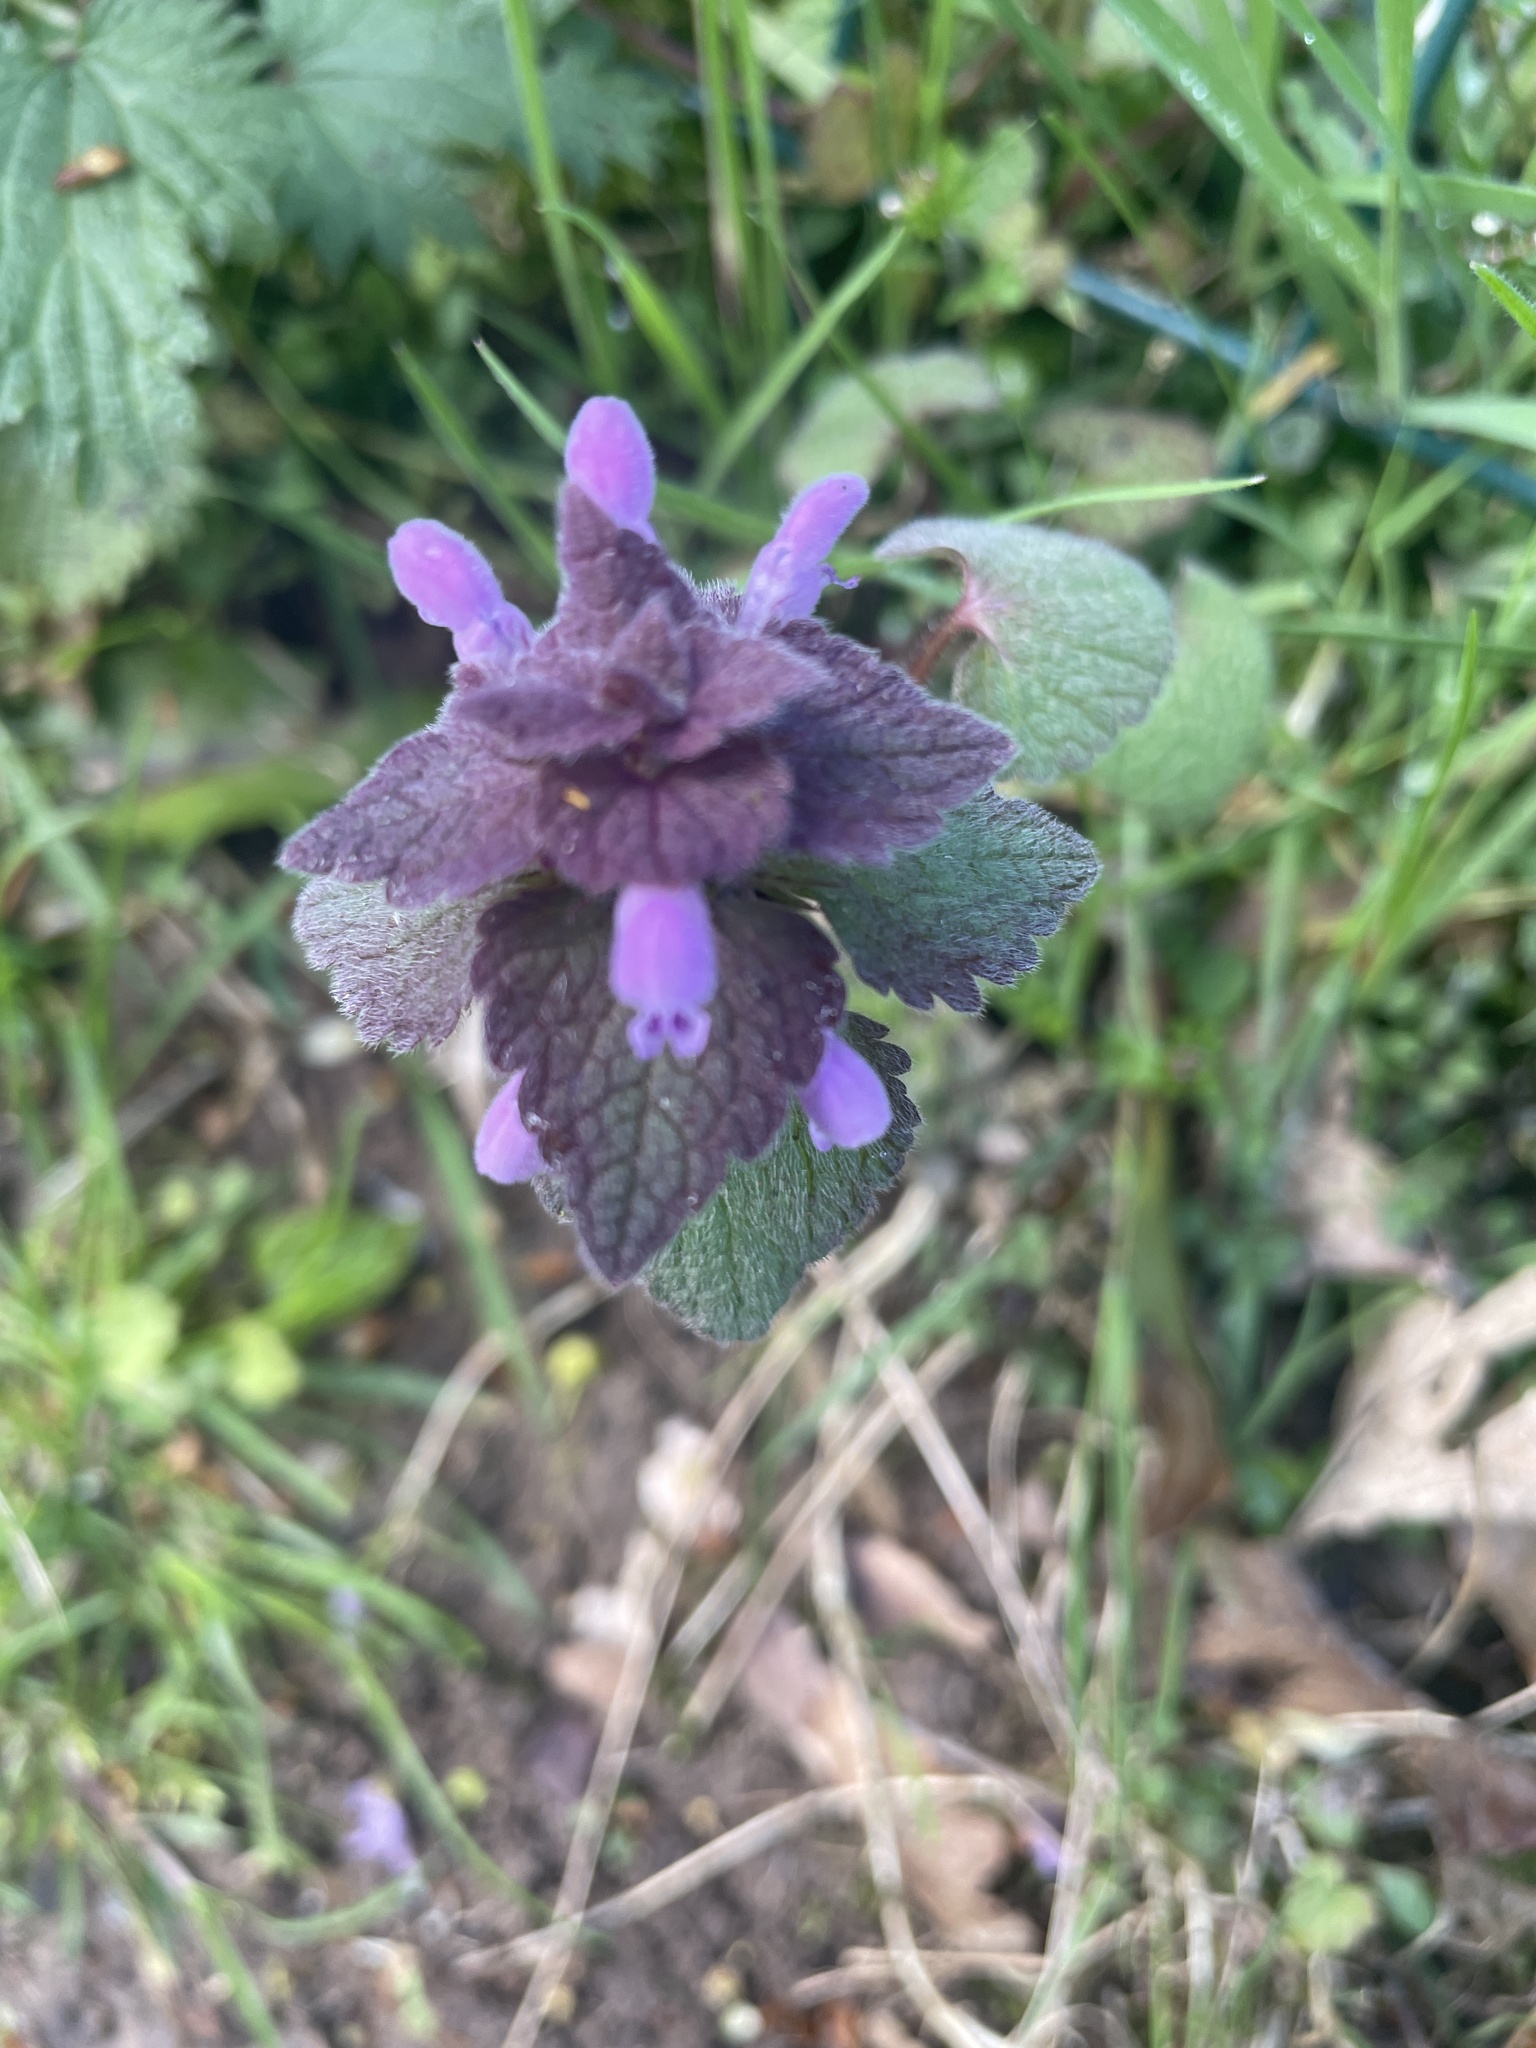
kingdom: Plantae
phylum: Tracheophyta
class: Magnoliopsida
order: Lamiales
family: Lamiaceae
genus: Lamium
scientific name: Lamium purpureum
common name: Red dead-nettle
